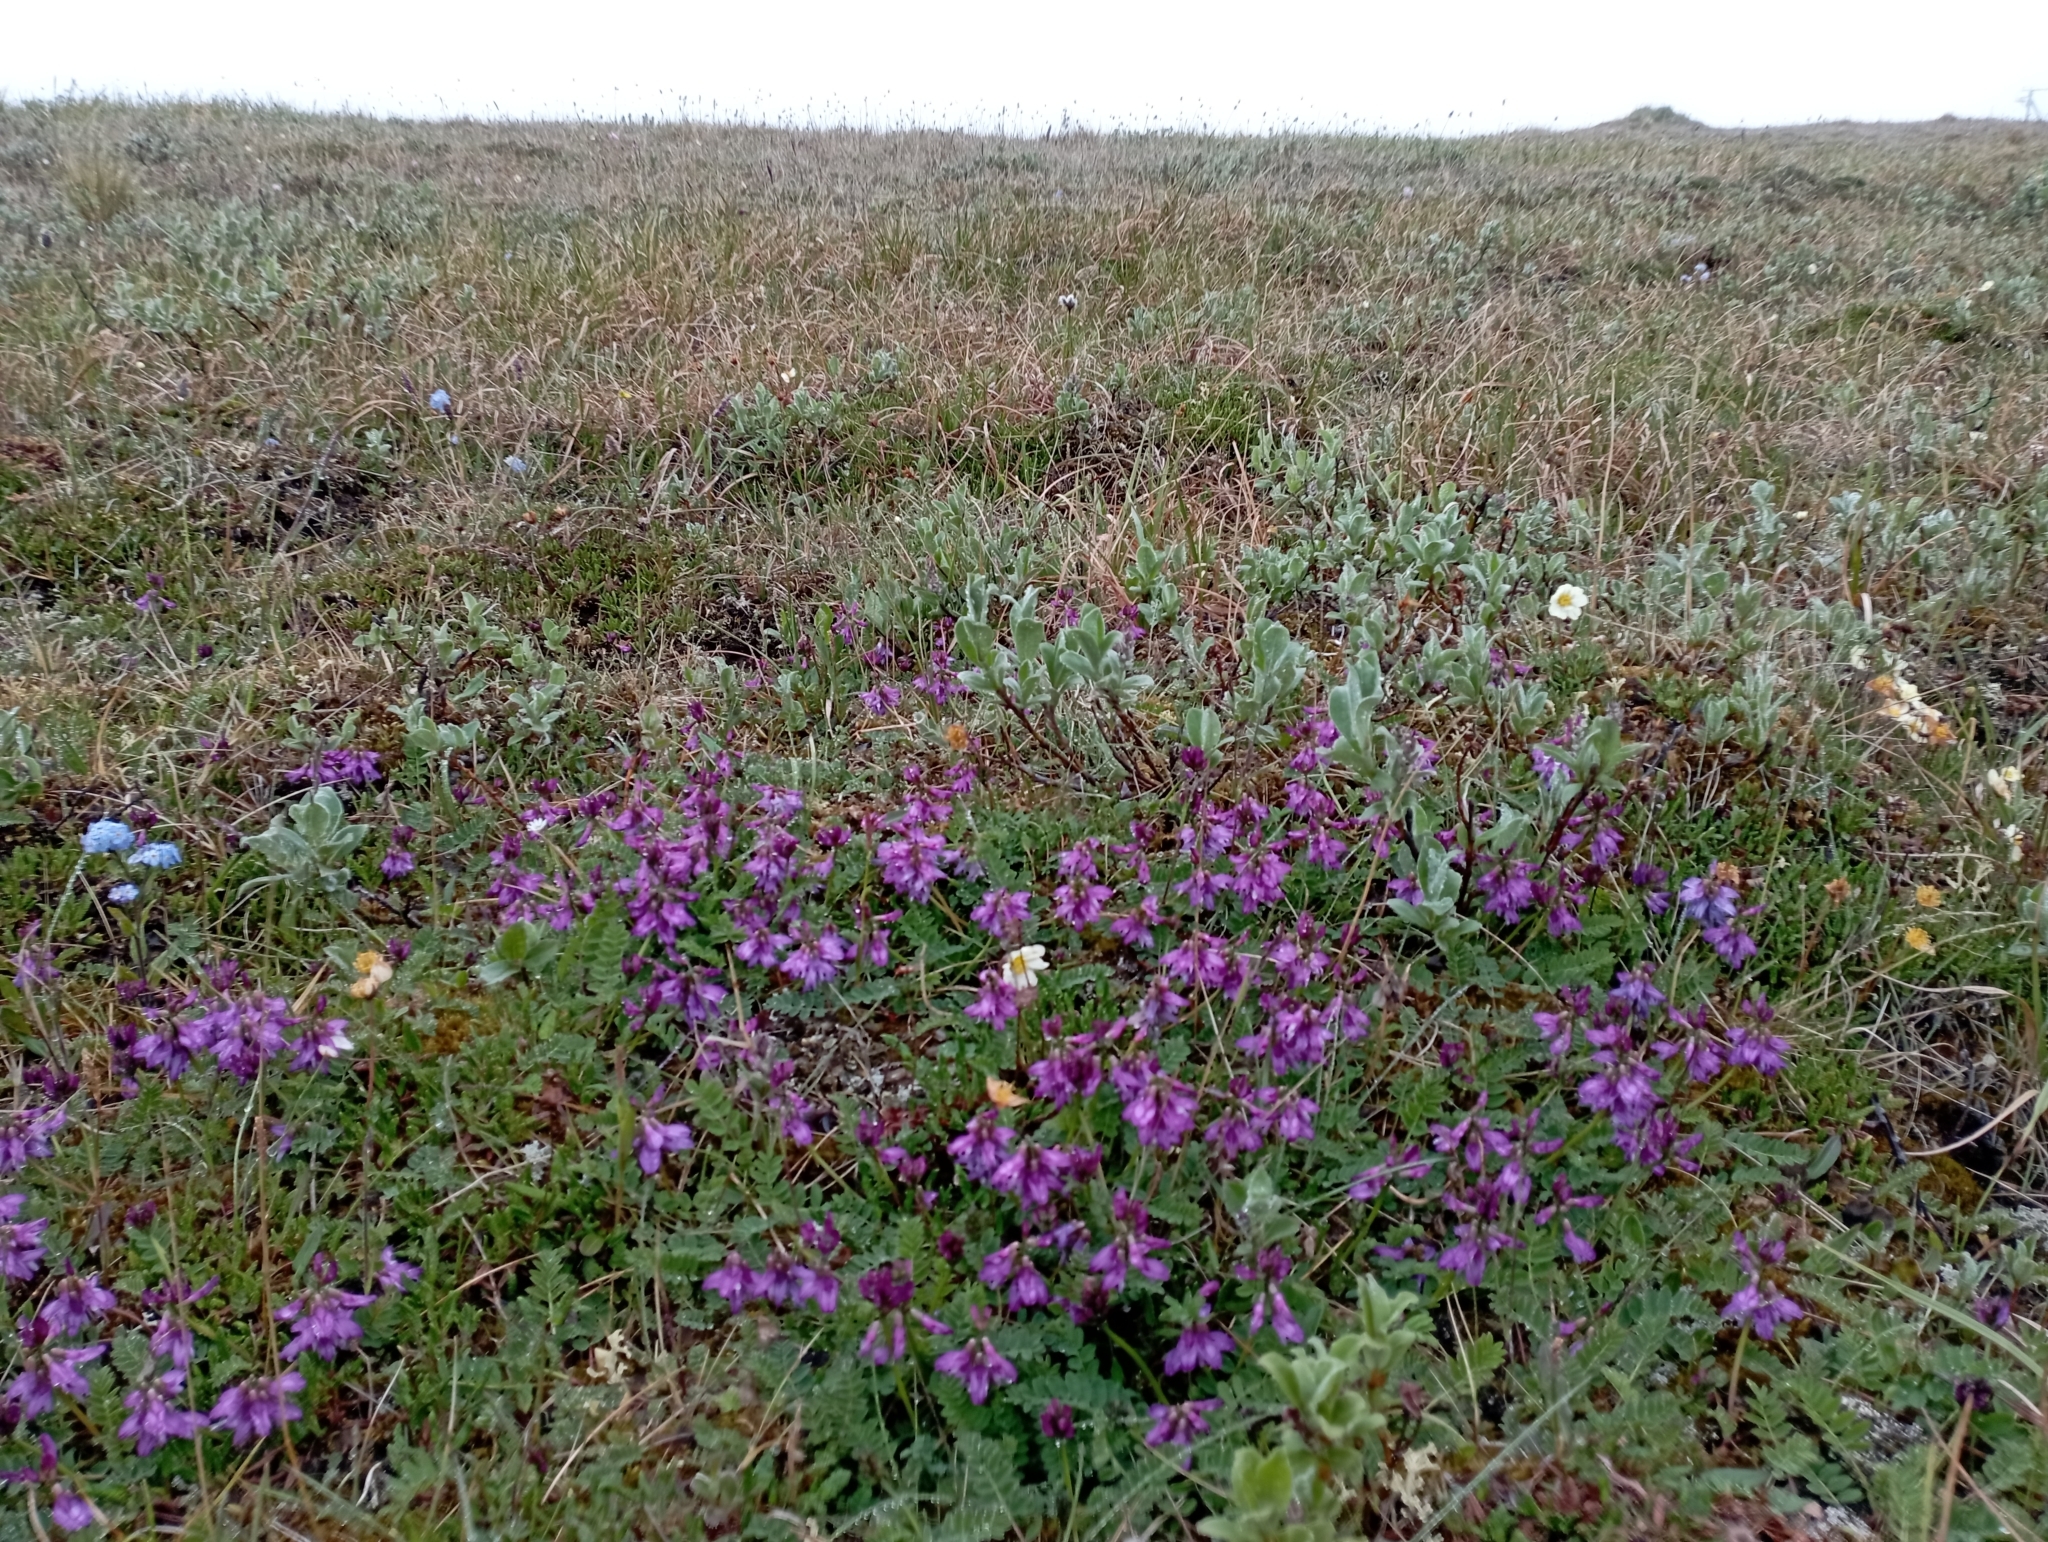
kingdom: Plantae
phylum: Tracheophyta
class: Magnoliopsida
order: Fabales
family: Fabaceae
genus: Astragalus
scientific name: Astragalus alpinus
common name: Alpine milk-vetch
